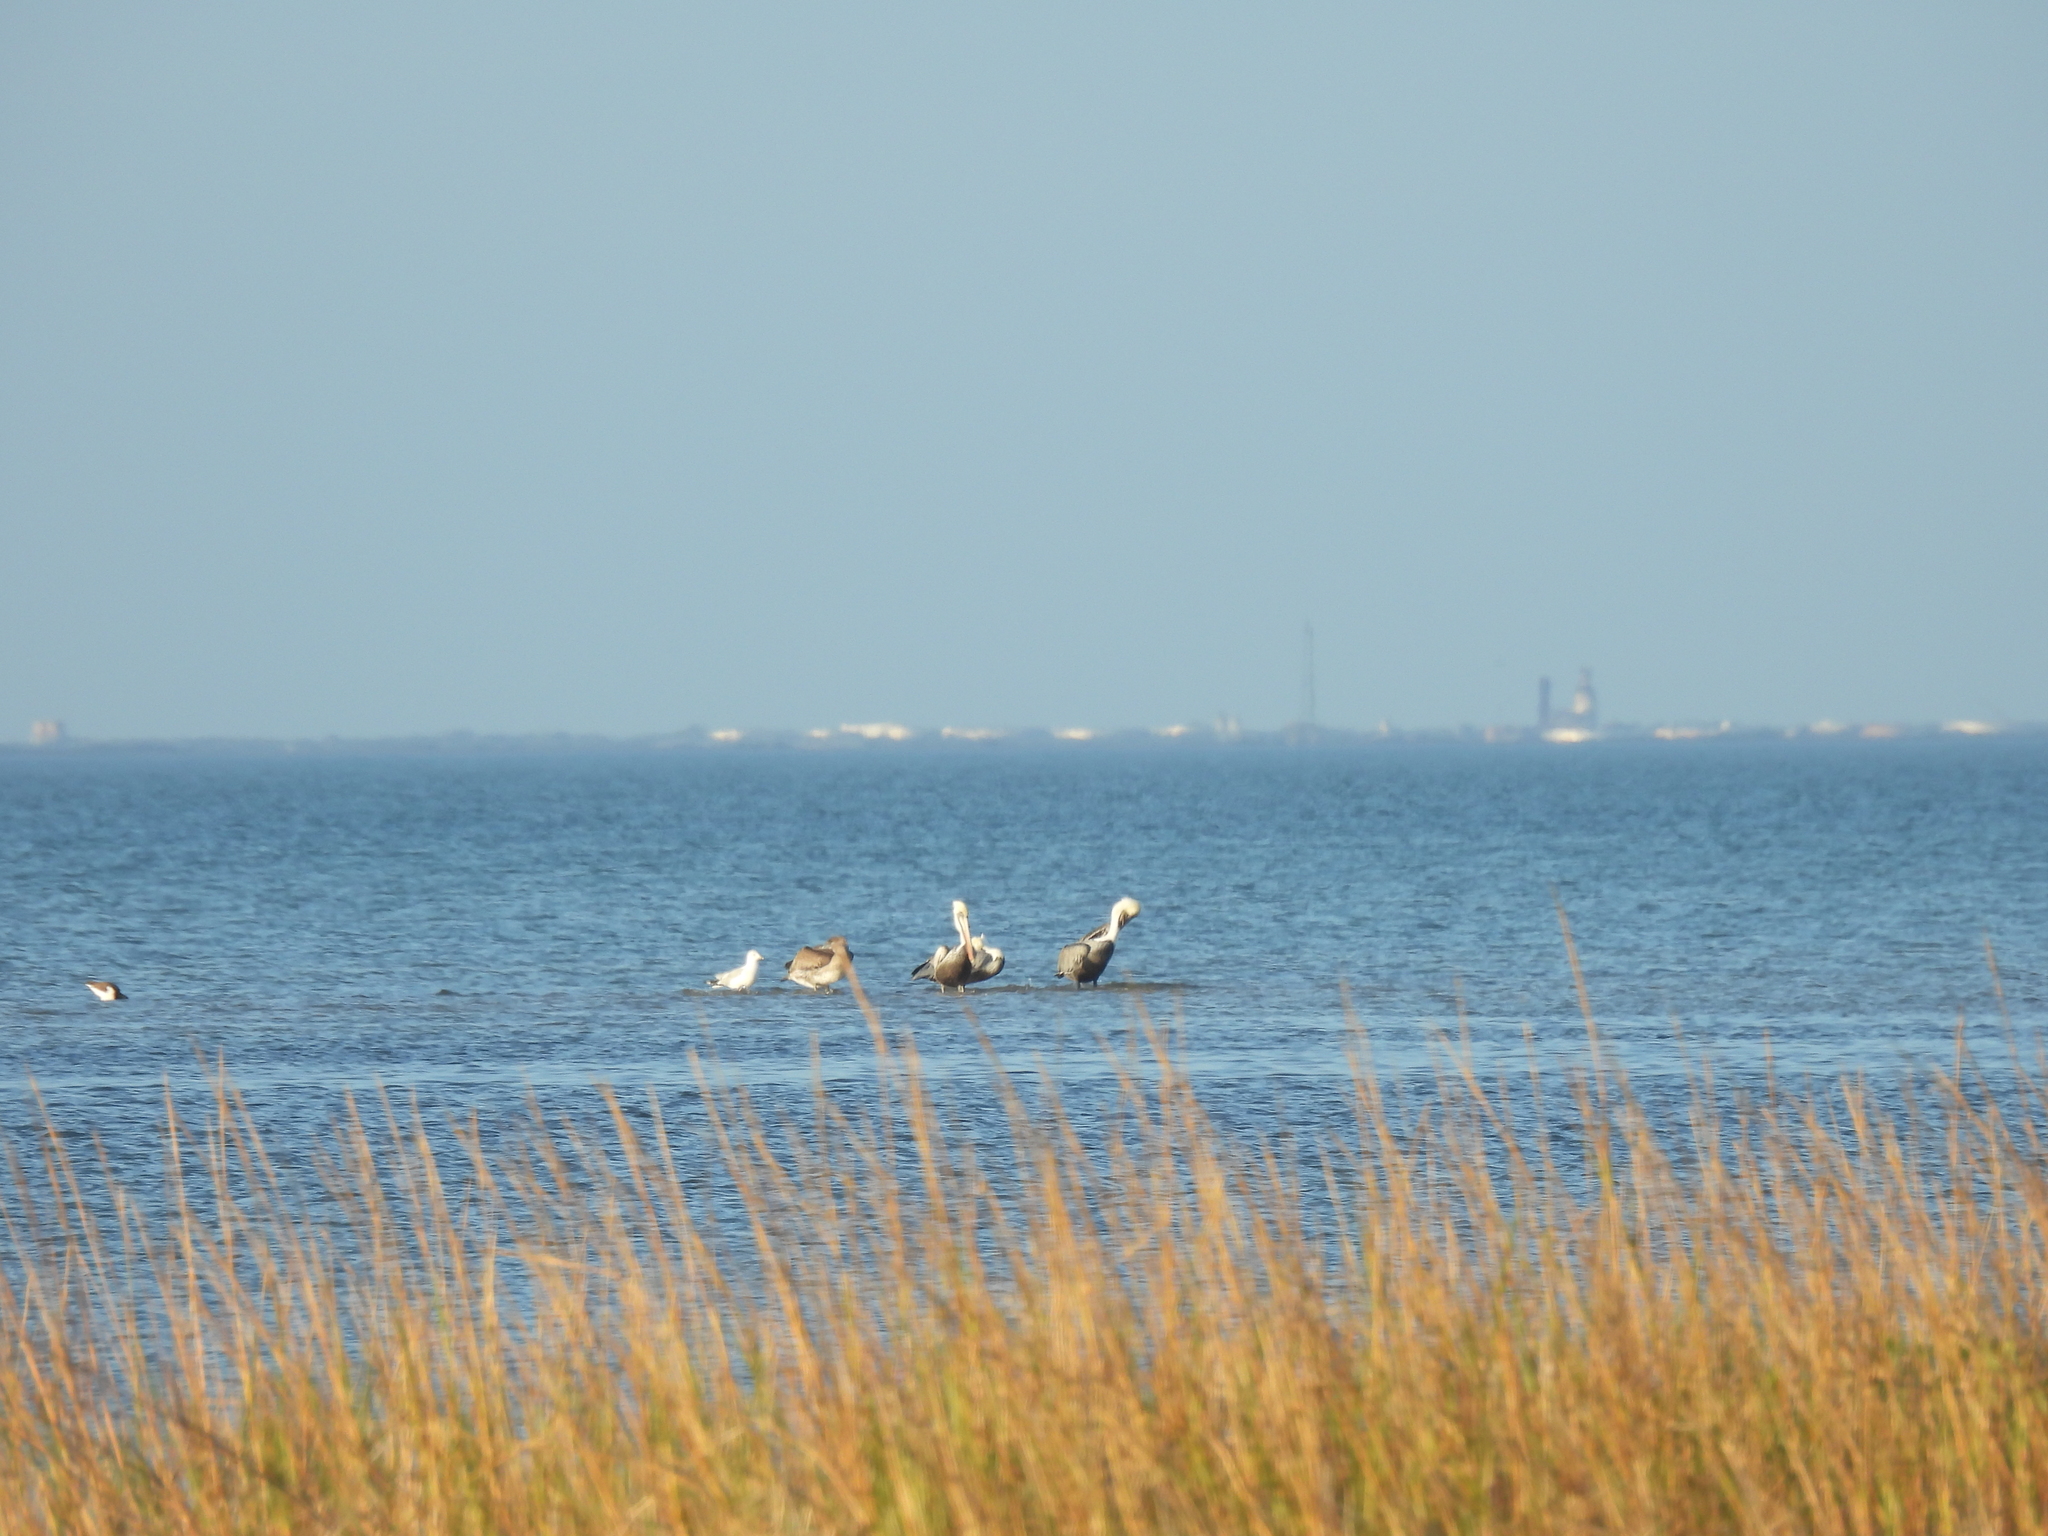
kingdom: Animalia
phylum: Chordata
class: Aves
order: Pelecaniformes
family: Pelecanidae
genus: Pelecanus
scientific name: Pelecanus occidentalis
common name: Brown pelican
